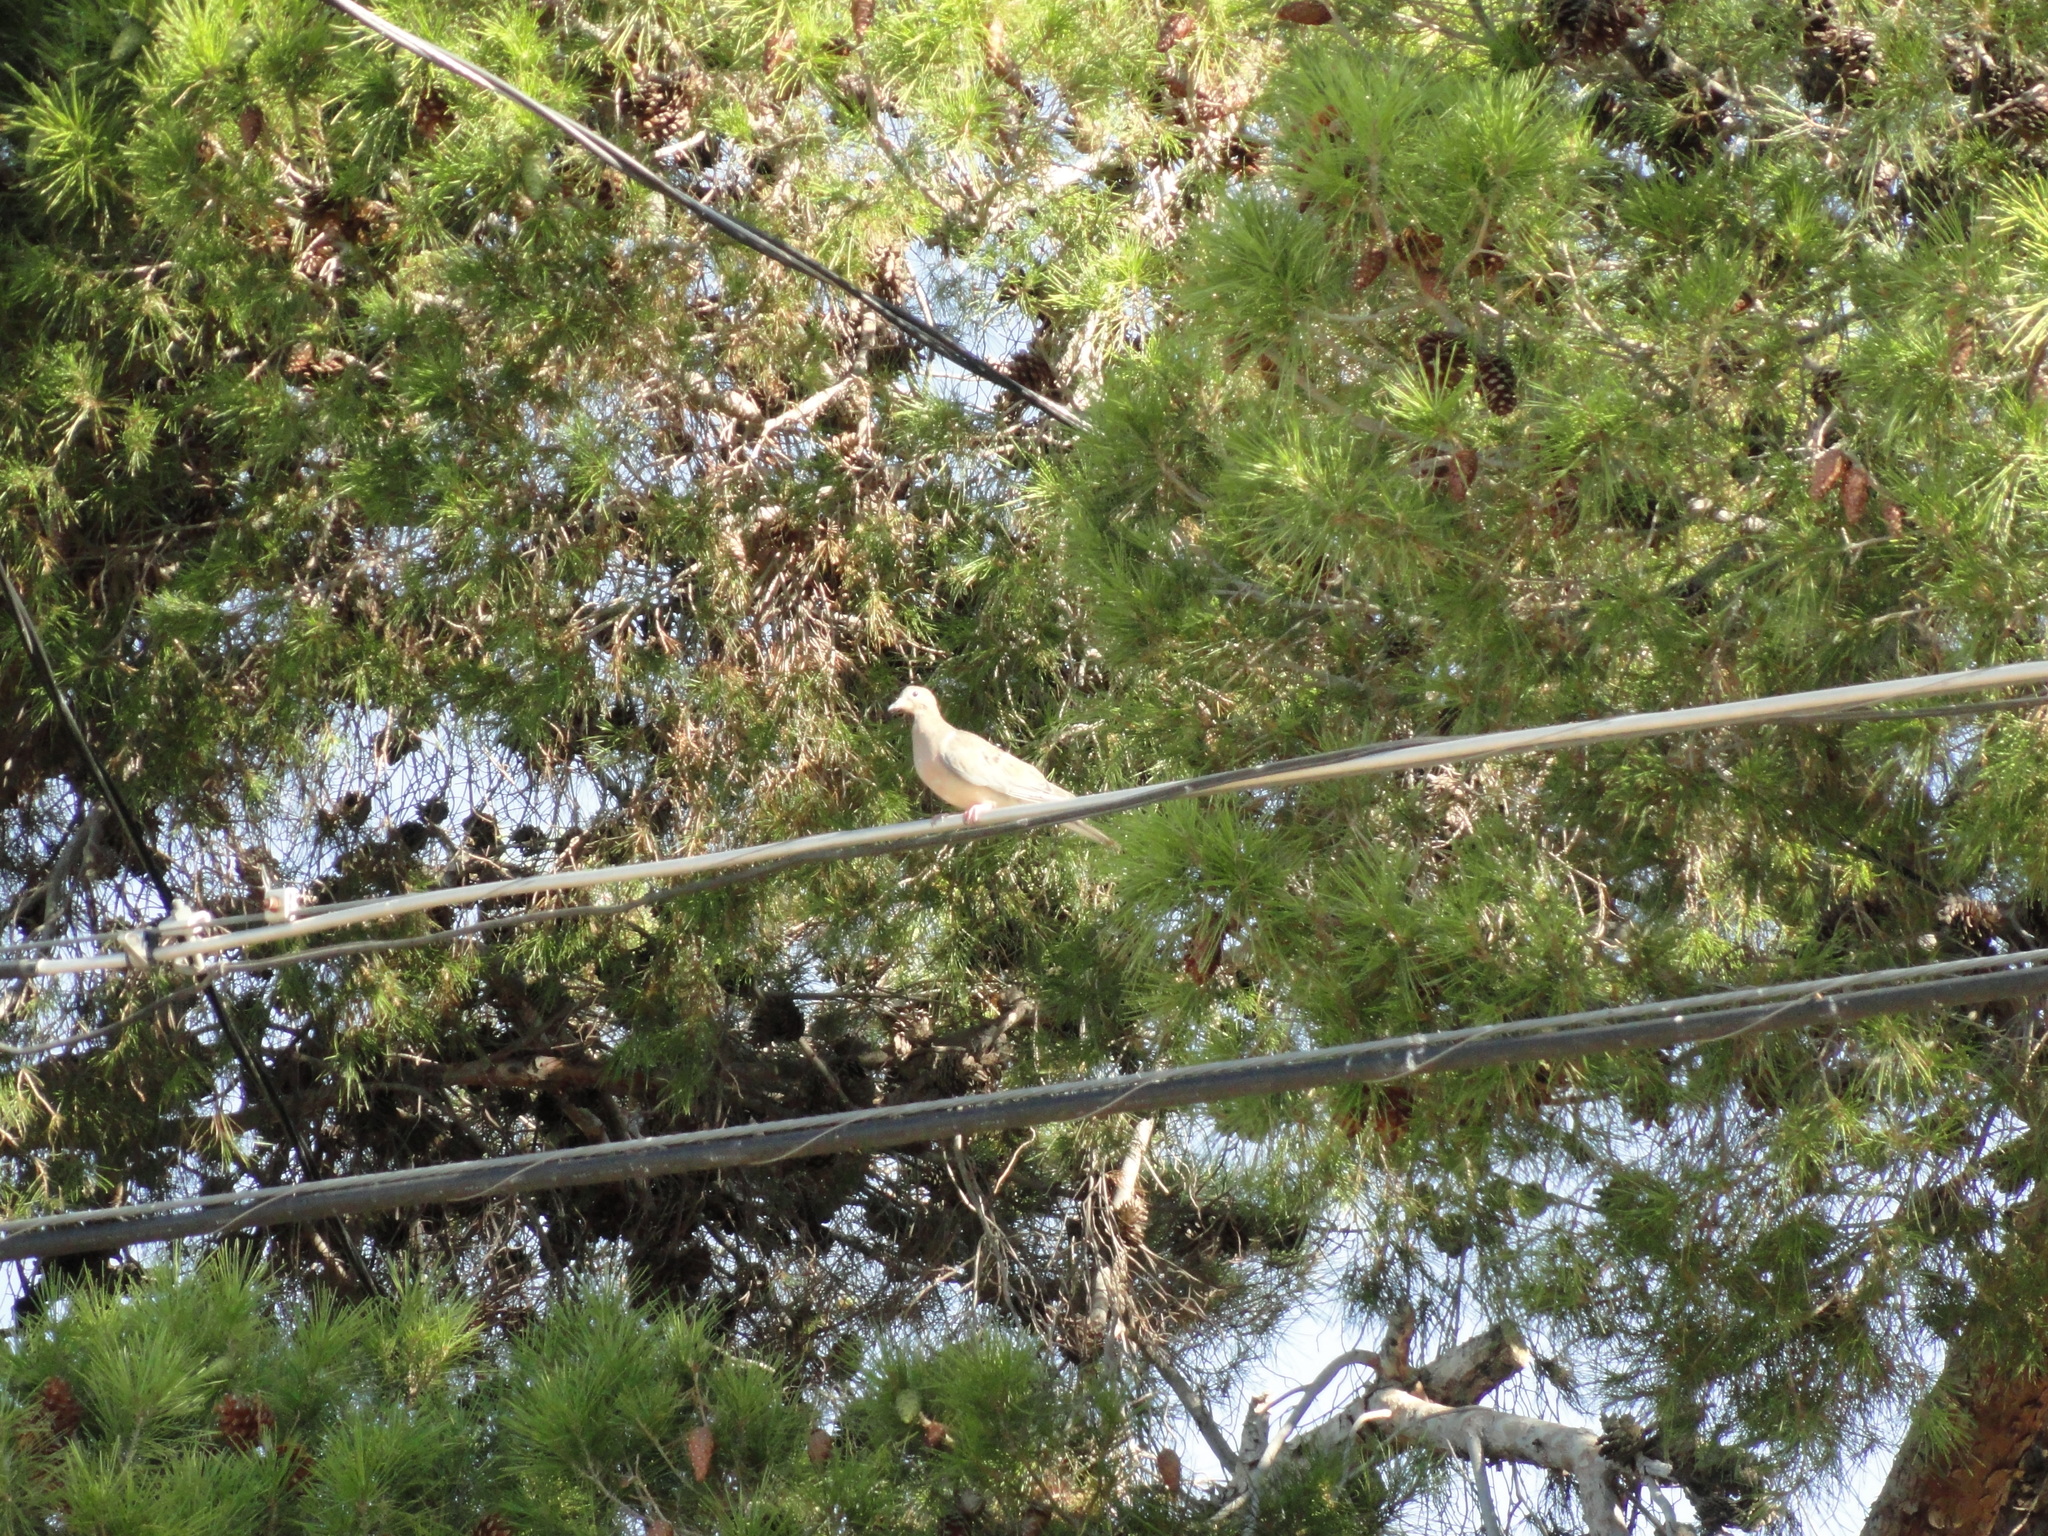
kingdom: Animalia
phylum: Chordata
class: Aves
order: Columbiformes
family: Columbidae
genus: Zenaida
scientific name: Zenaida macroura
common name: Mourning dove
